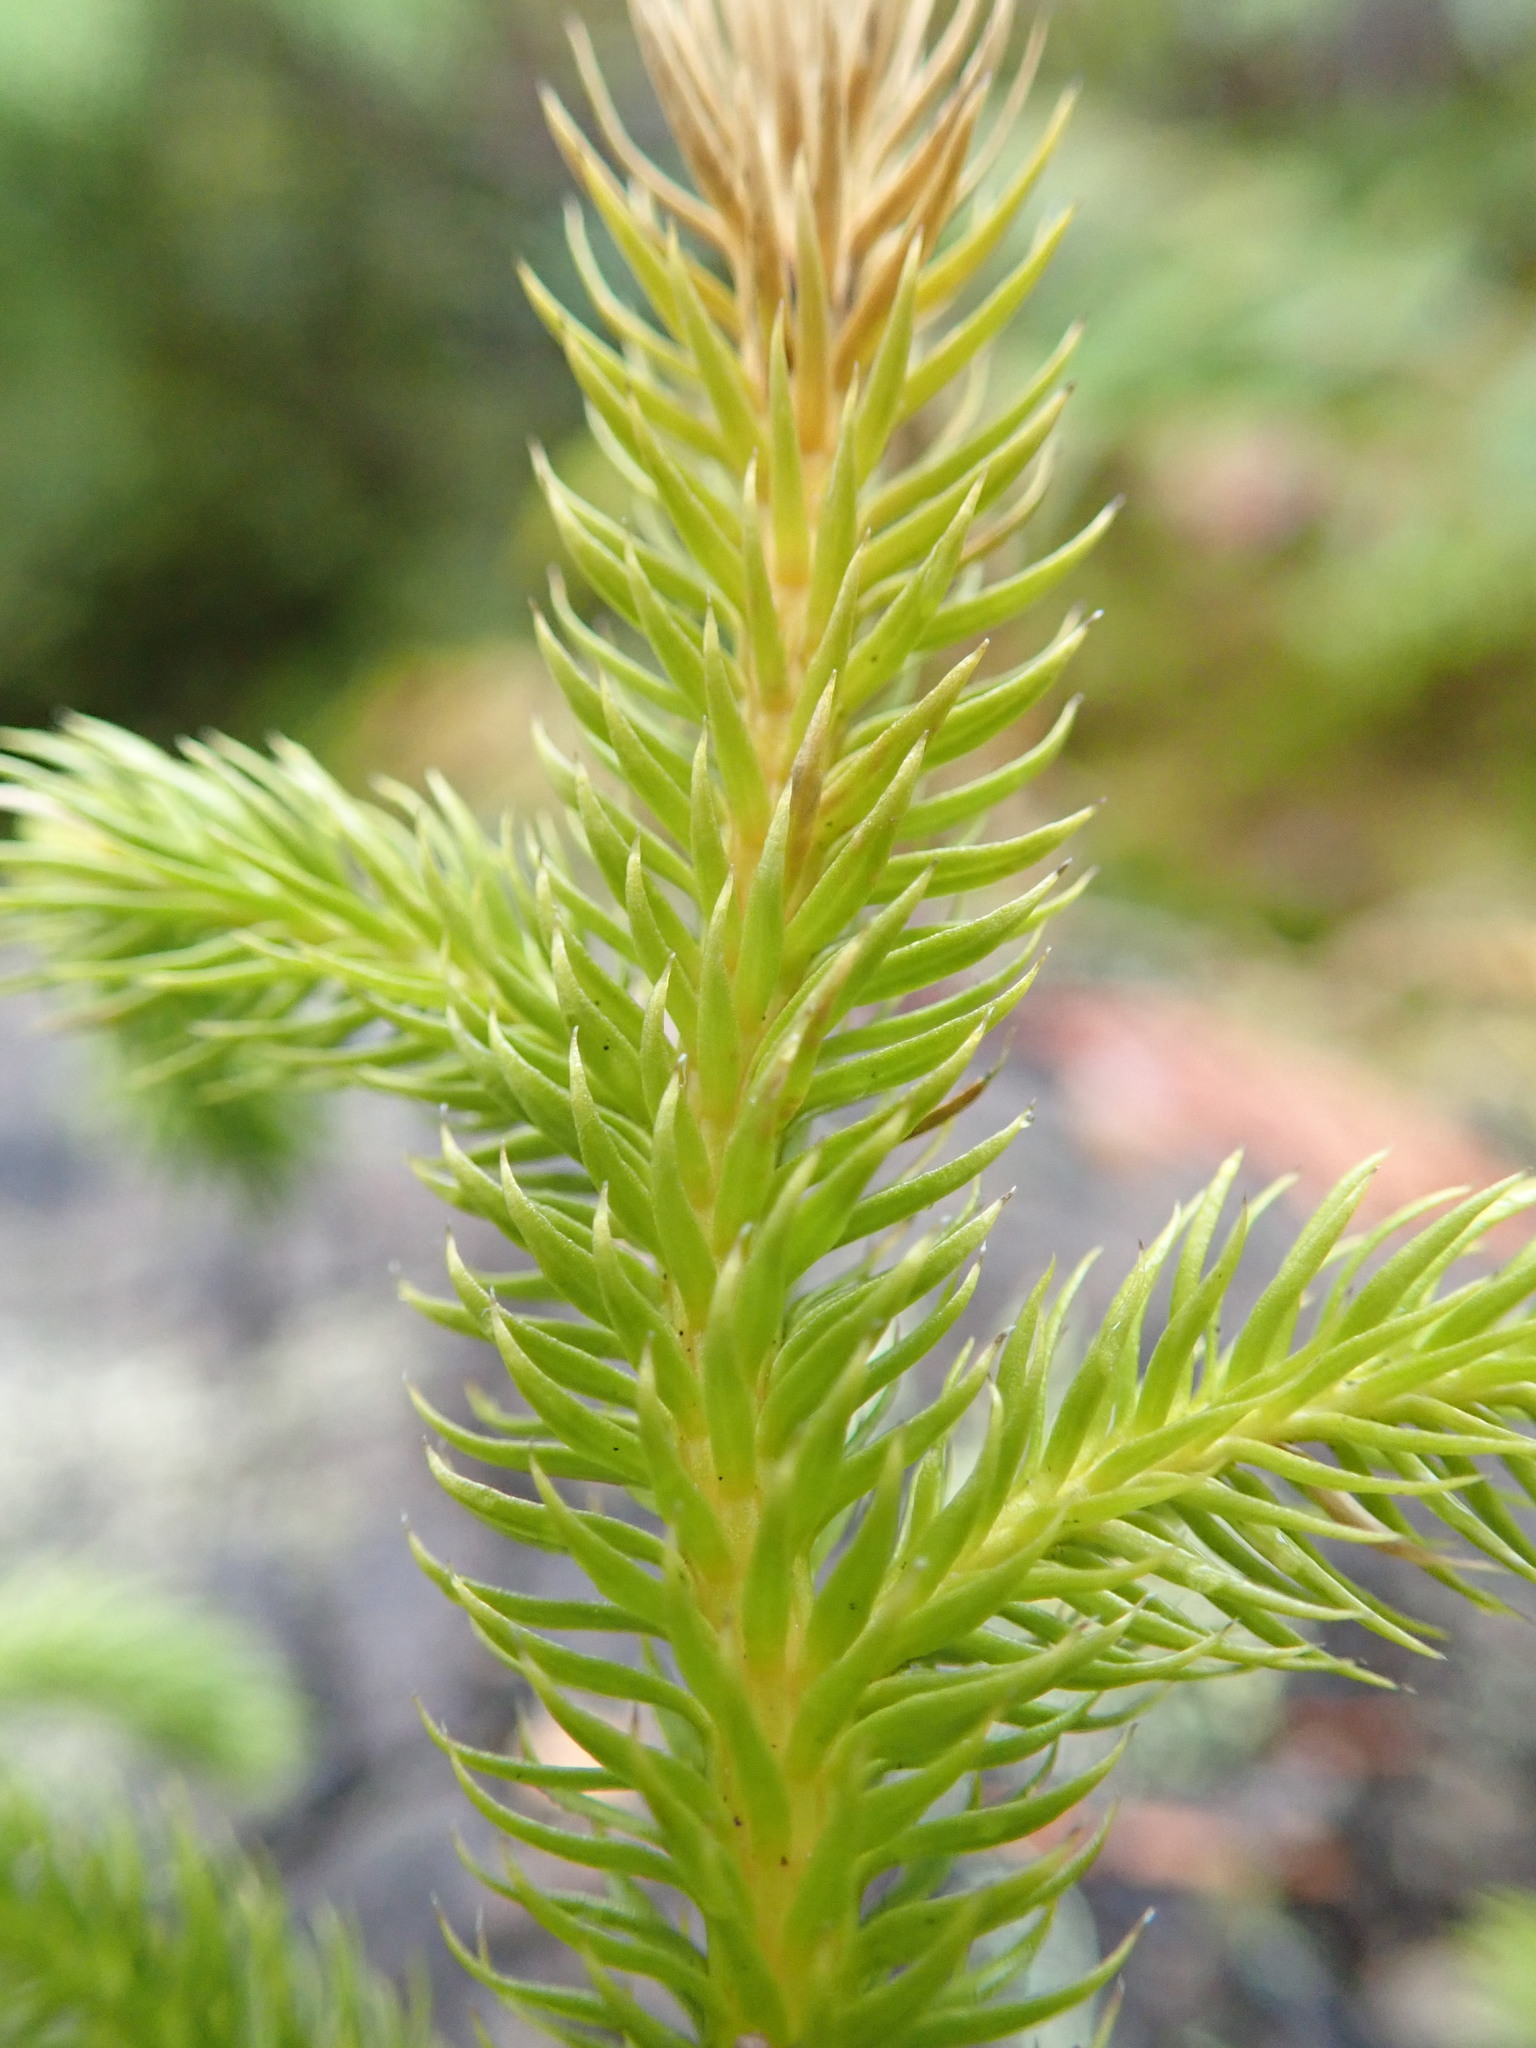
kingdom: Plantae
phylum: Tracheophyta
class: Lycopodiopsida
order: Lycopodiales
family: Lycopodiaceae
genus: Lycopodium
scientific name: Lycopodium clavatum
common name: Stag's-horn clubmoss
